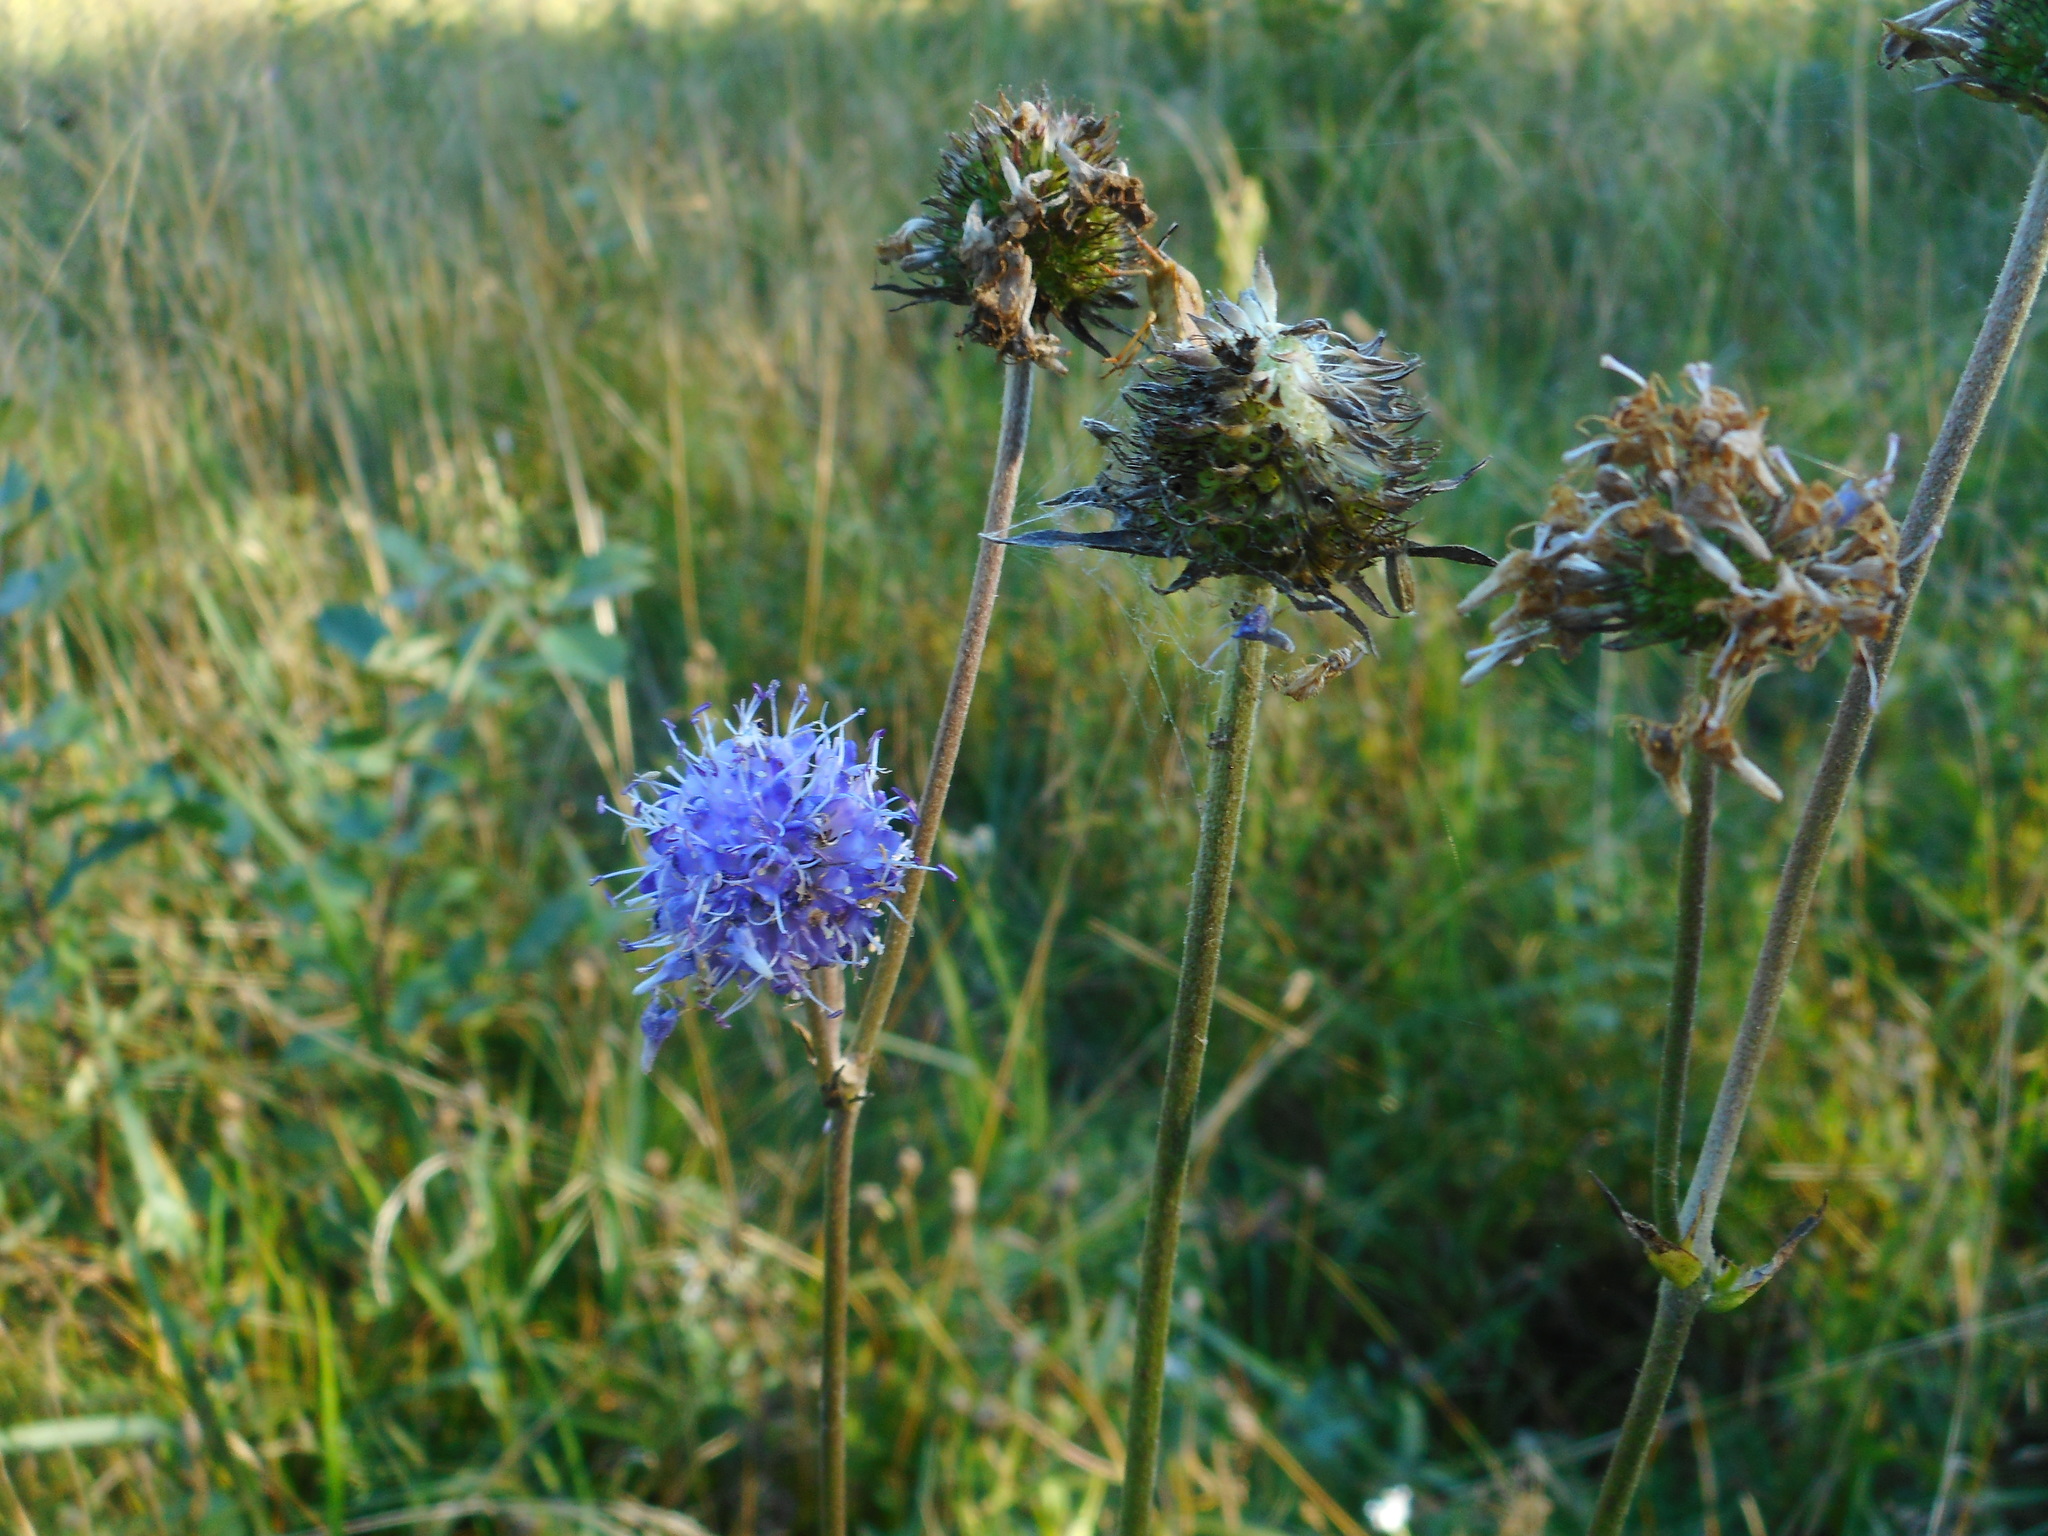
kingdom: Plantae
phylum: Tracheophyta
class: Magnoliopsida
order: Dipsacales
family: Caprifoliaceae
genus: Succisa
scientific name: Succisa pratensis
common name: Devil's-bit
